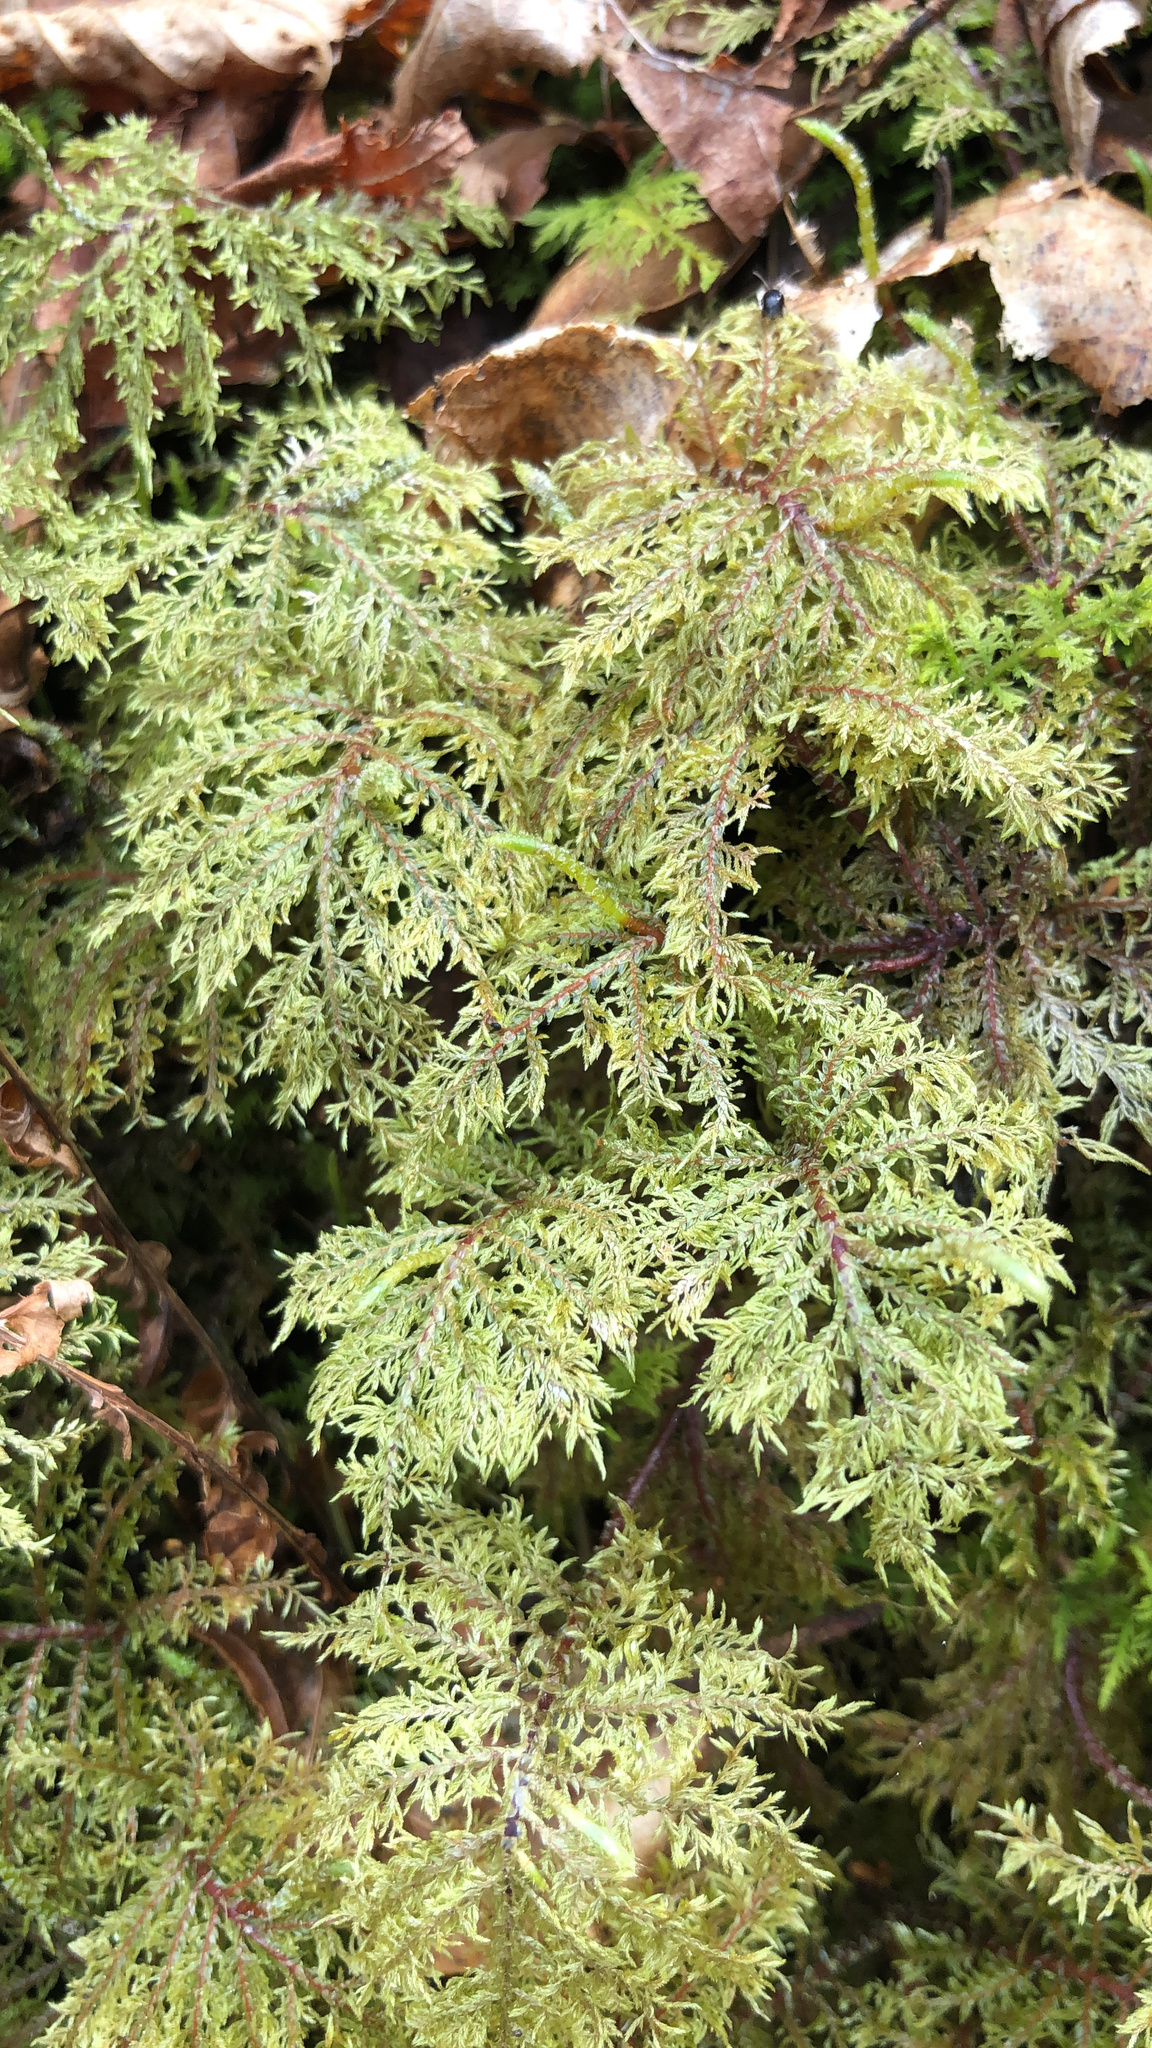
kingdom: Plantae
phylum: Bryophyta
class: Bryopsida
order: Hypnales
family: Hylocomiaceae
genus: Hylocomium
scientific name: Hylocomium splendens
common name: Stairstep moss
